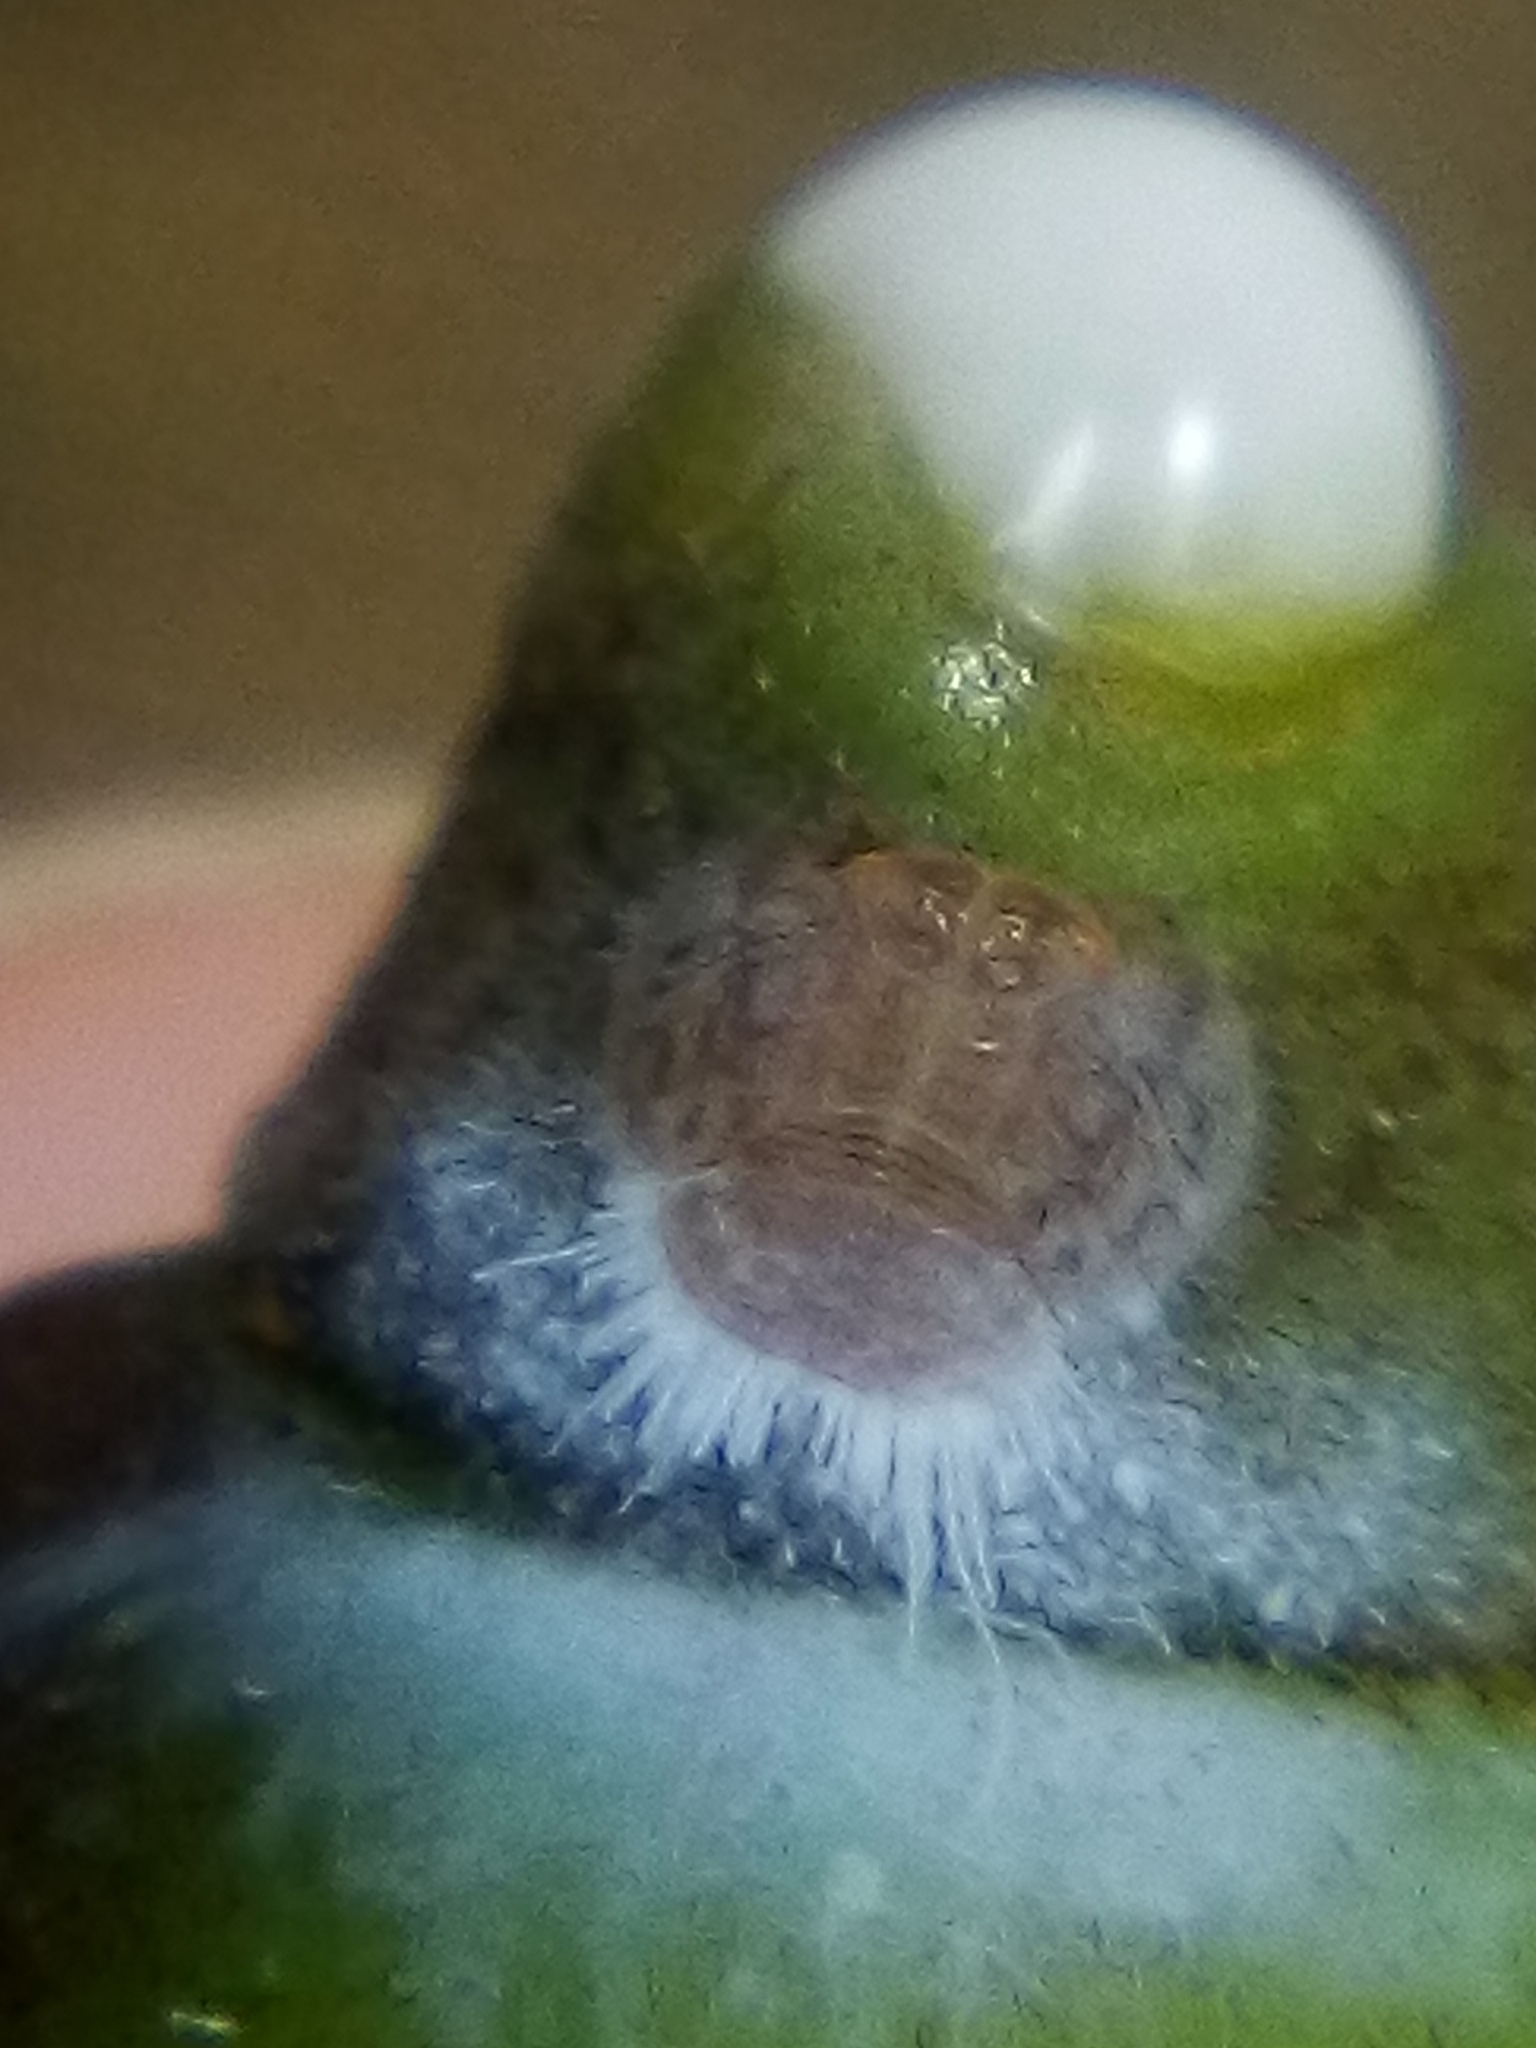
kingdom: Animalia
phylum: Arthropoda
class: Insecta
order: Hemiptera
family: Homotomidae
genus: Mycopsylla
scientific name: Mycopsylla obliqua
